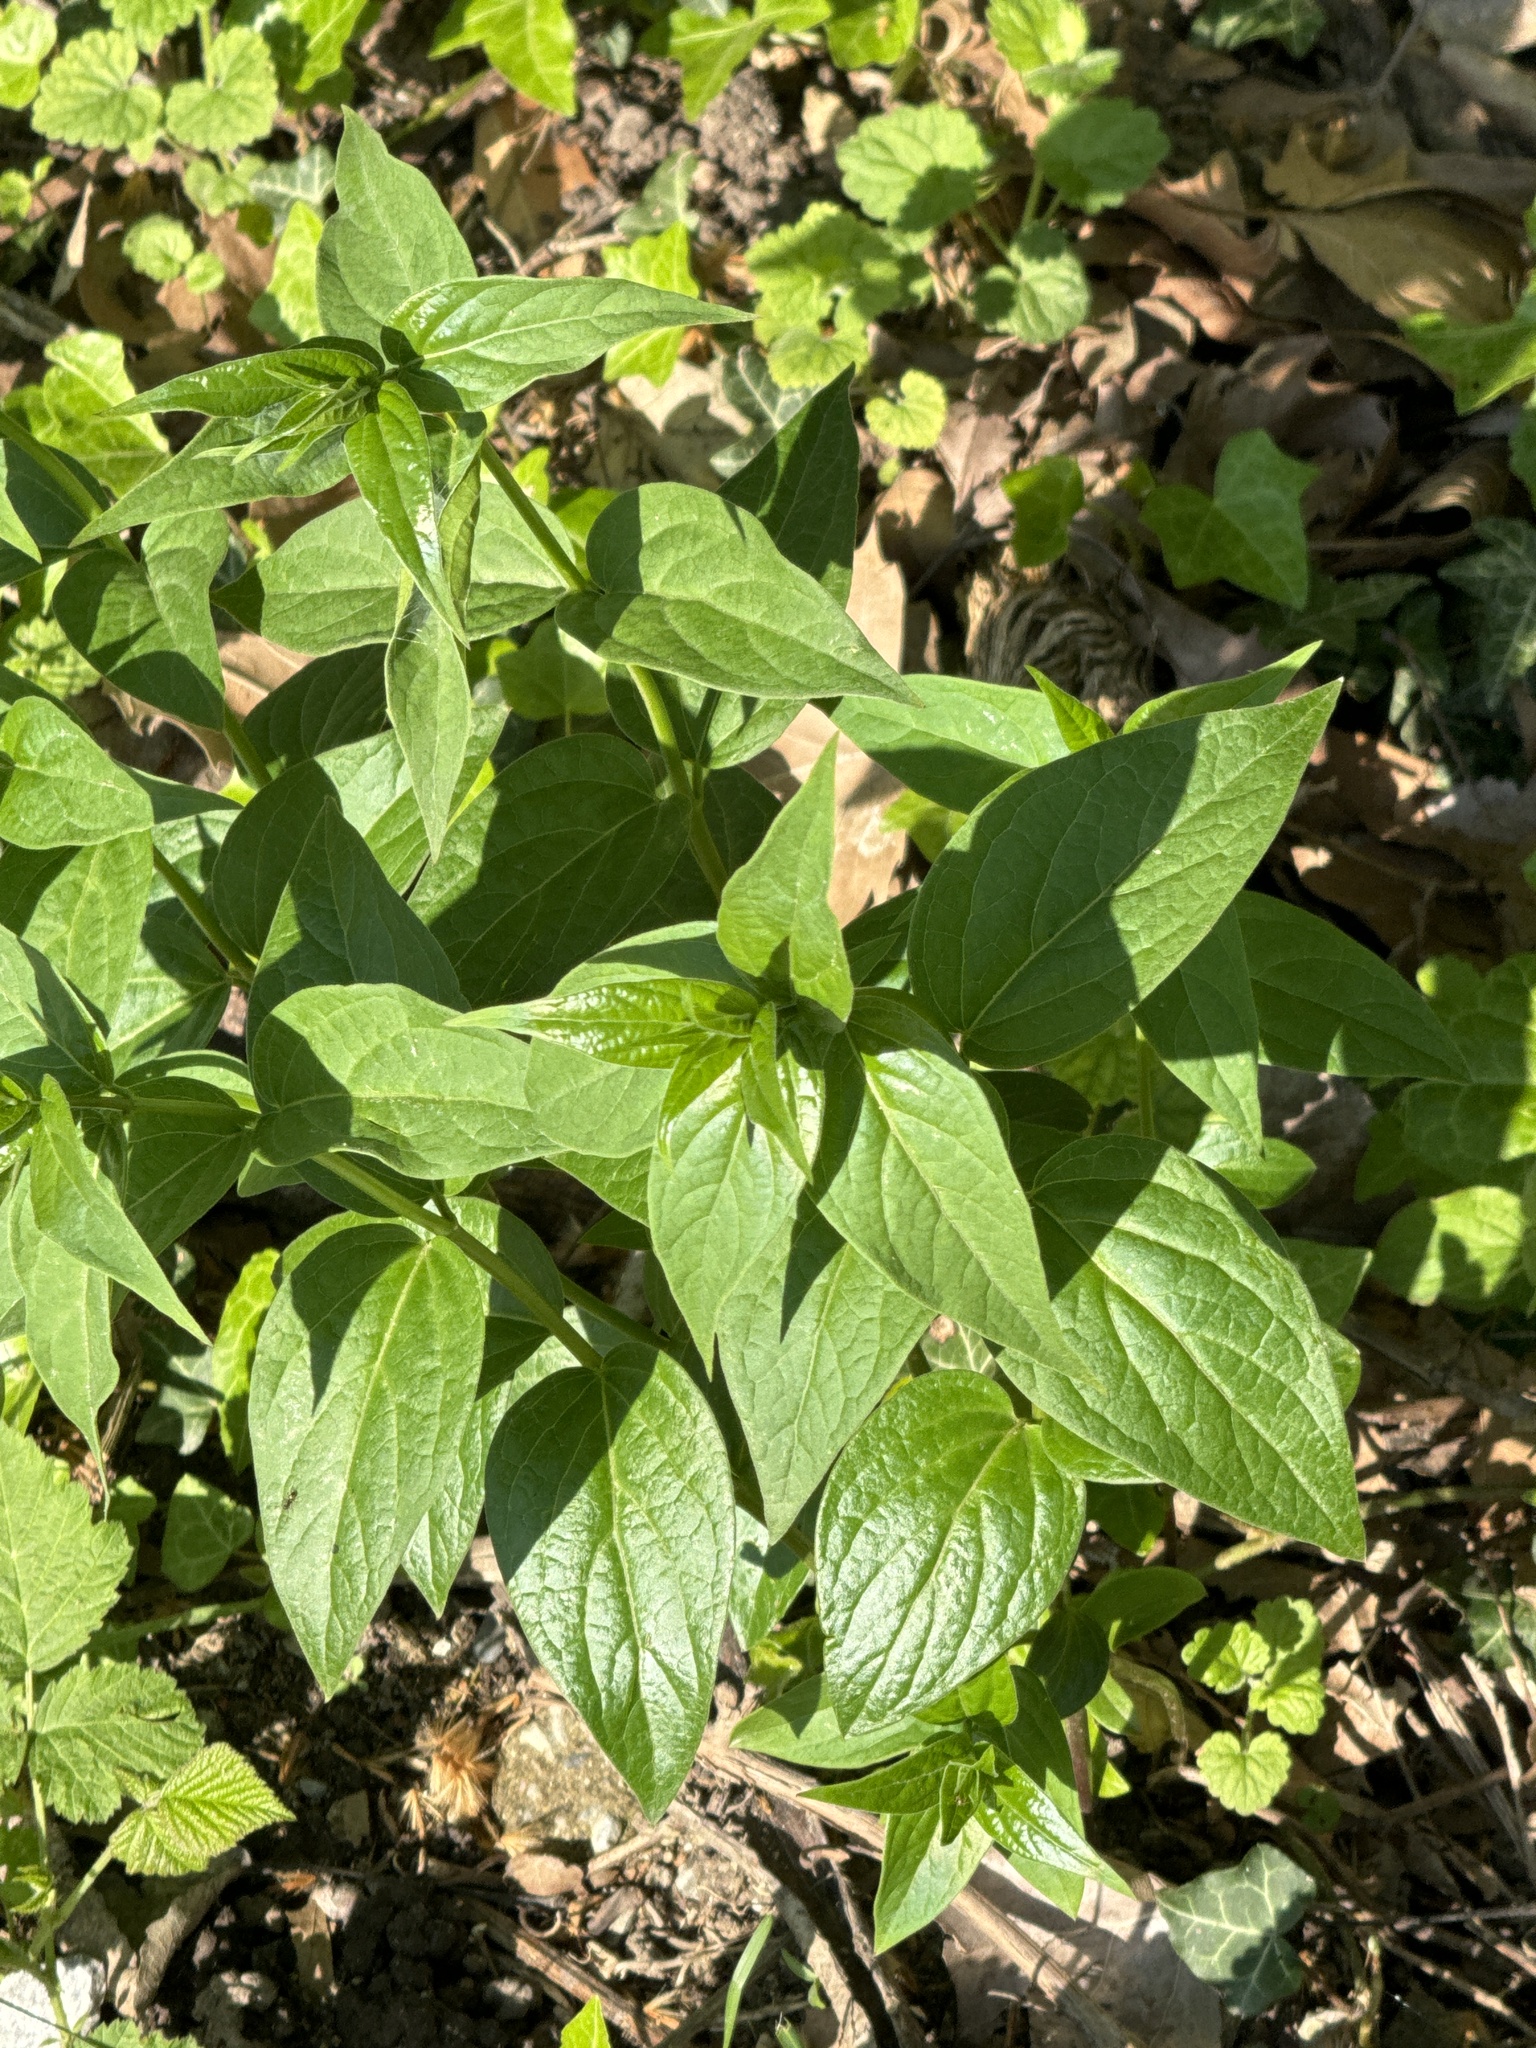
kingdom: Plantae
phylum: Tracheophyta
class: Magnoliopsida
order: Gentianales
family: Apocynaceae
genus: Vincetoxicum
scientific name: Vincetoxicum hirundinaria
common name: White swallowwort
